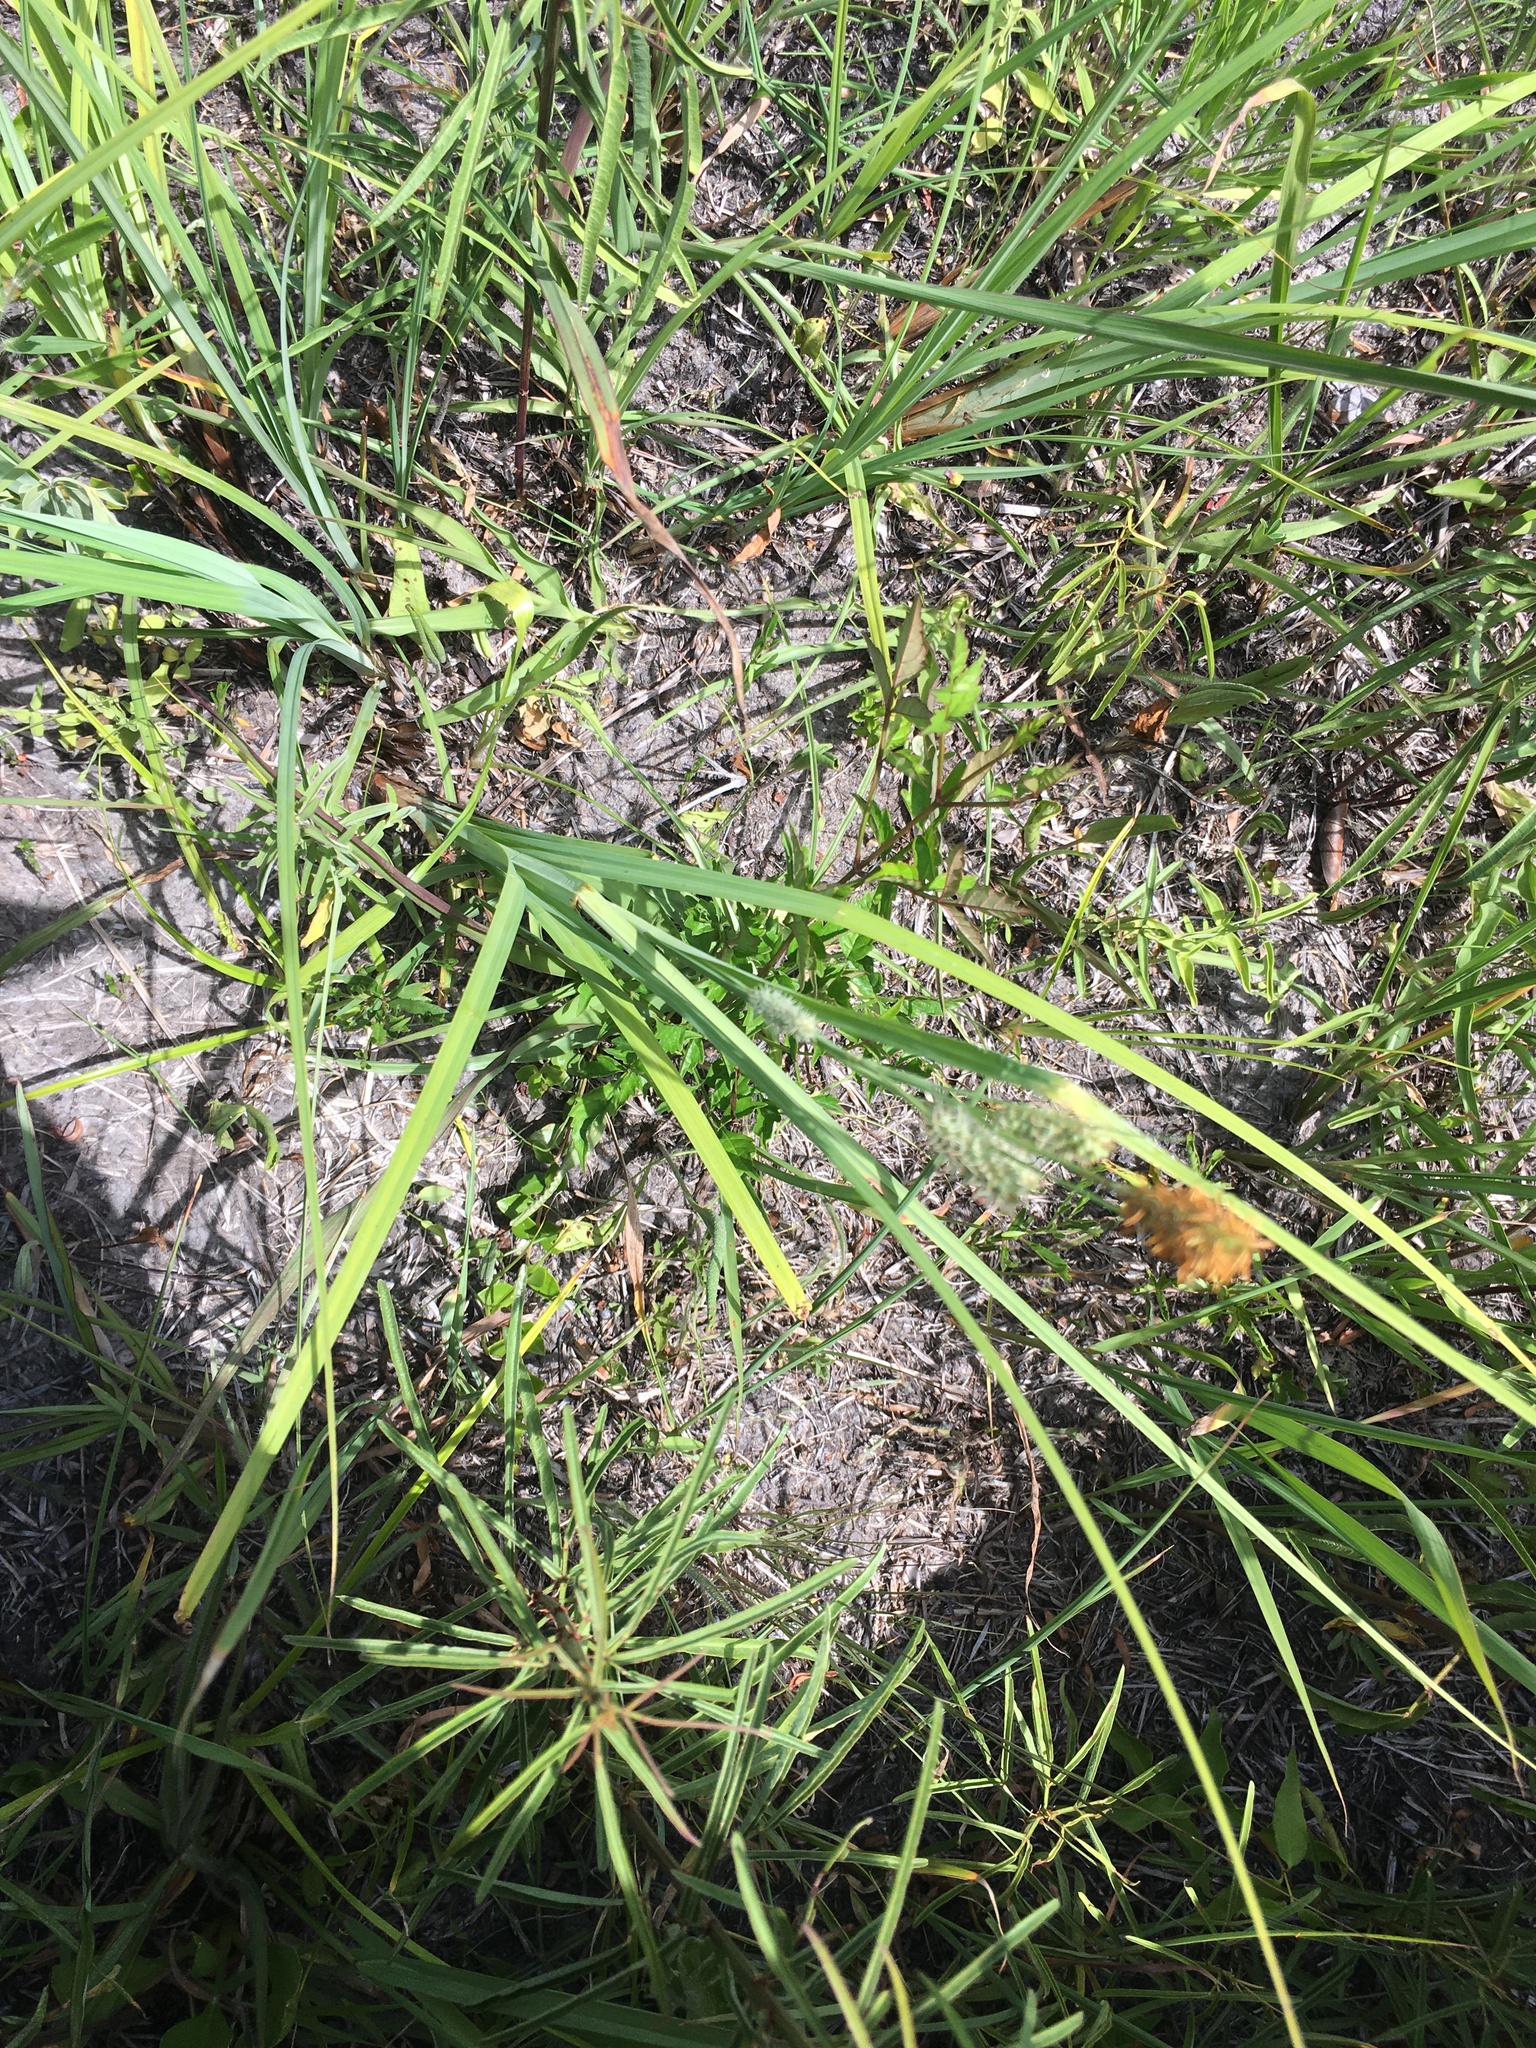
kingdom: Plantae
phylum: Tracheophyta
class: Liliopsida
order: Poales
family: Cyperaceae
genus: Carex
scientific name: Carex glaucescens
